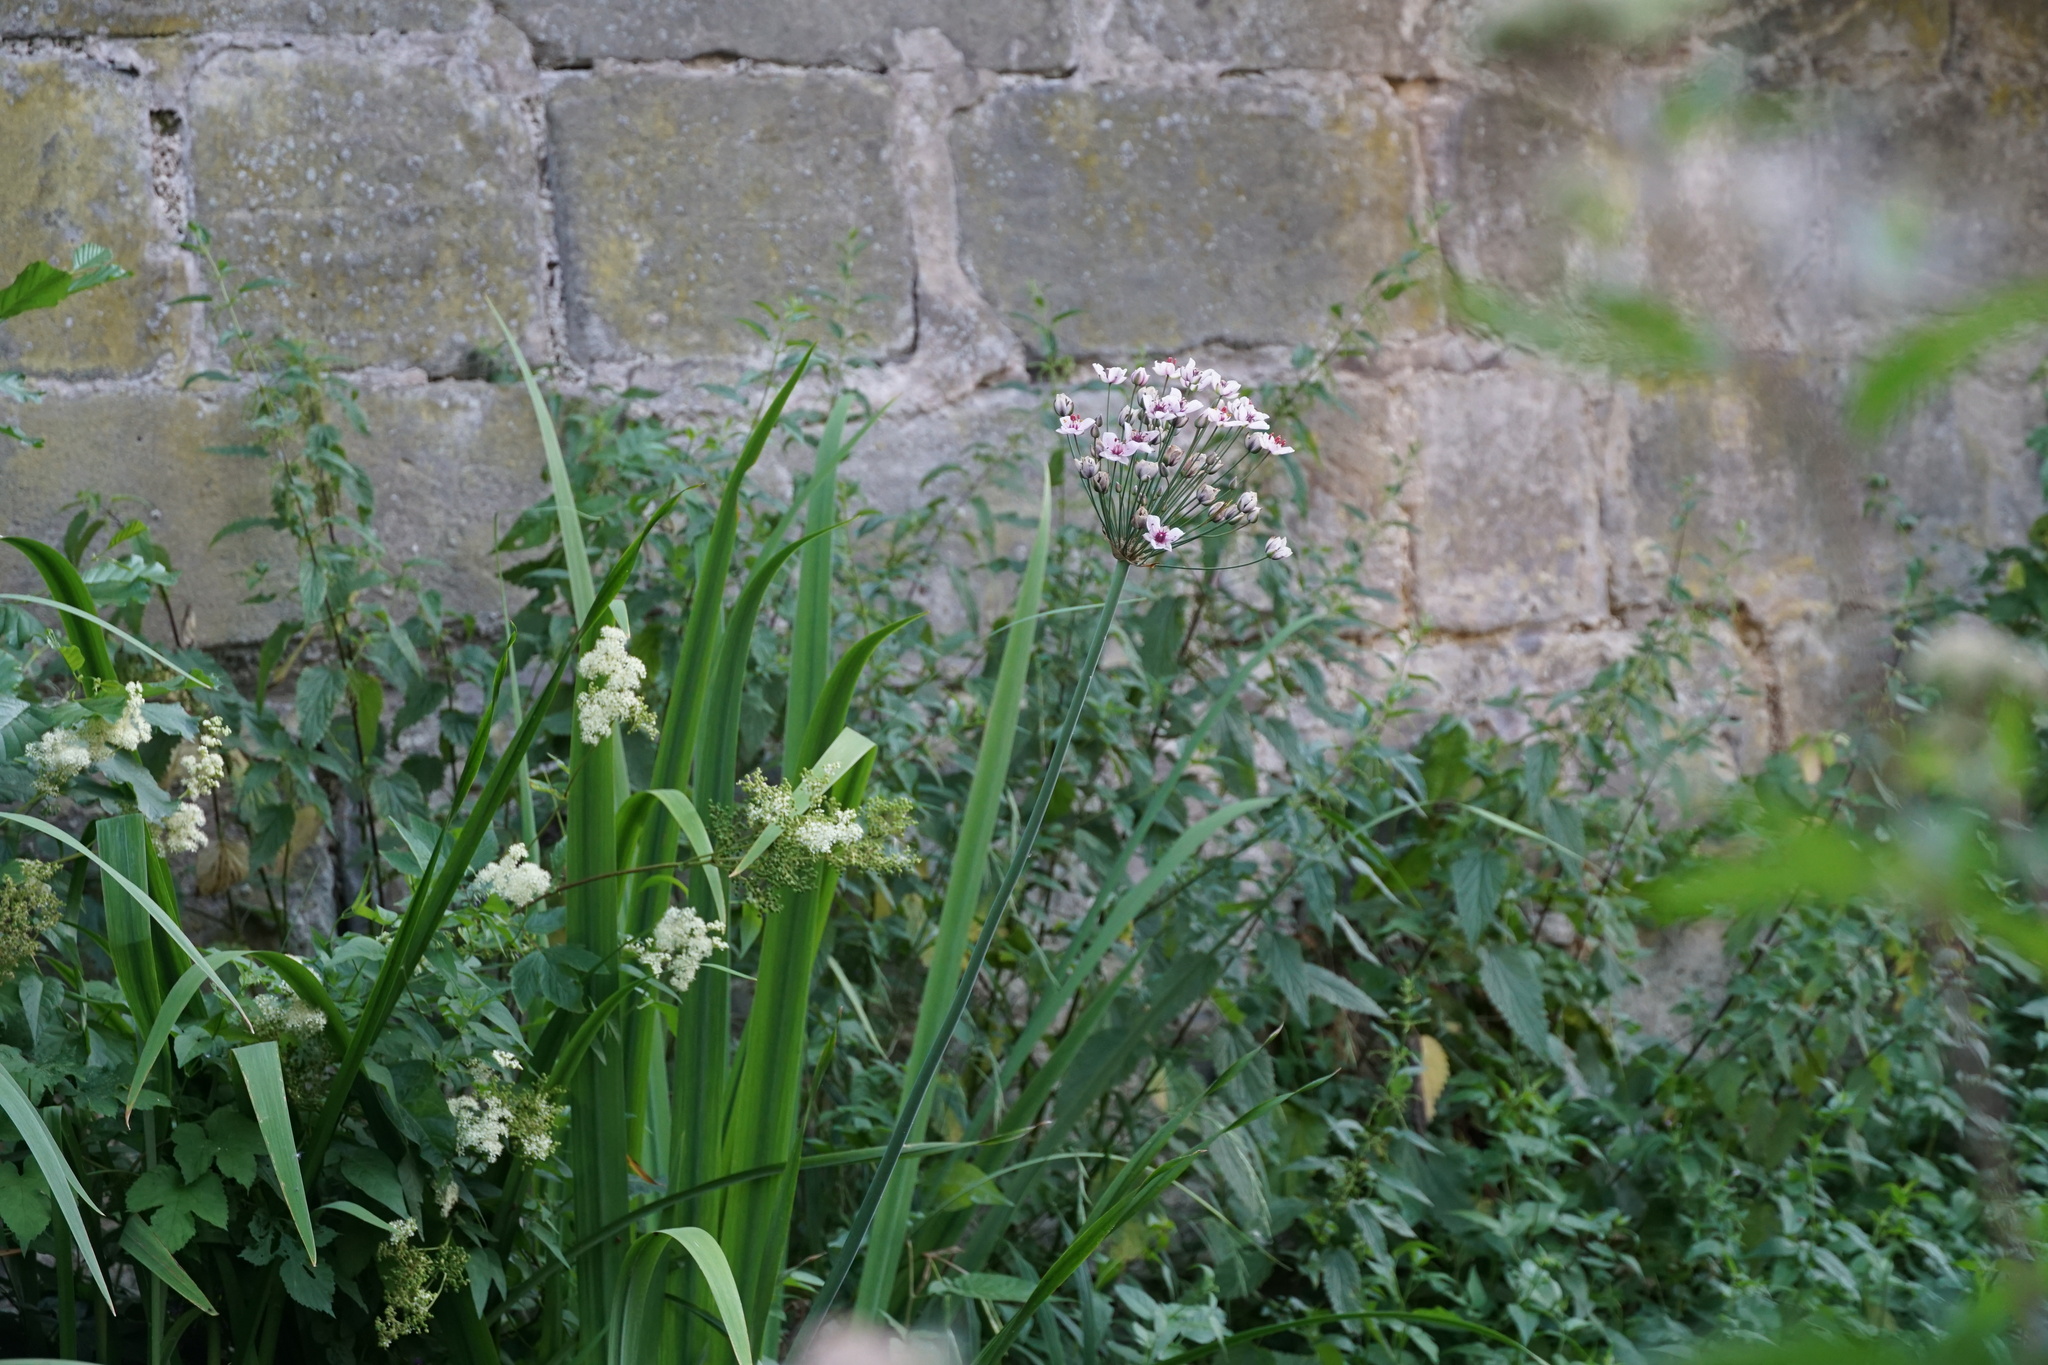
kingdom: Plantae
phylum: Tracheophyta
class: Liliopsida
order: Alismatales
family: Butomaceae
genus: Butomus
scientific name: Butomus umbellatus
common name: Flowering-rush
